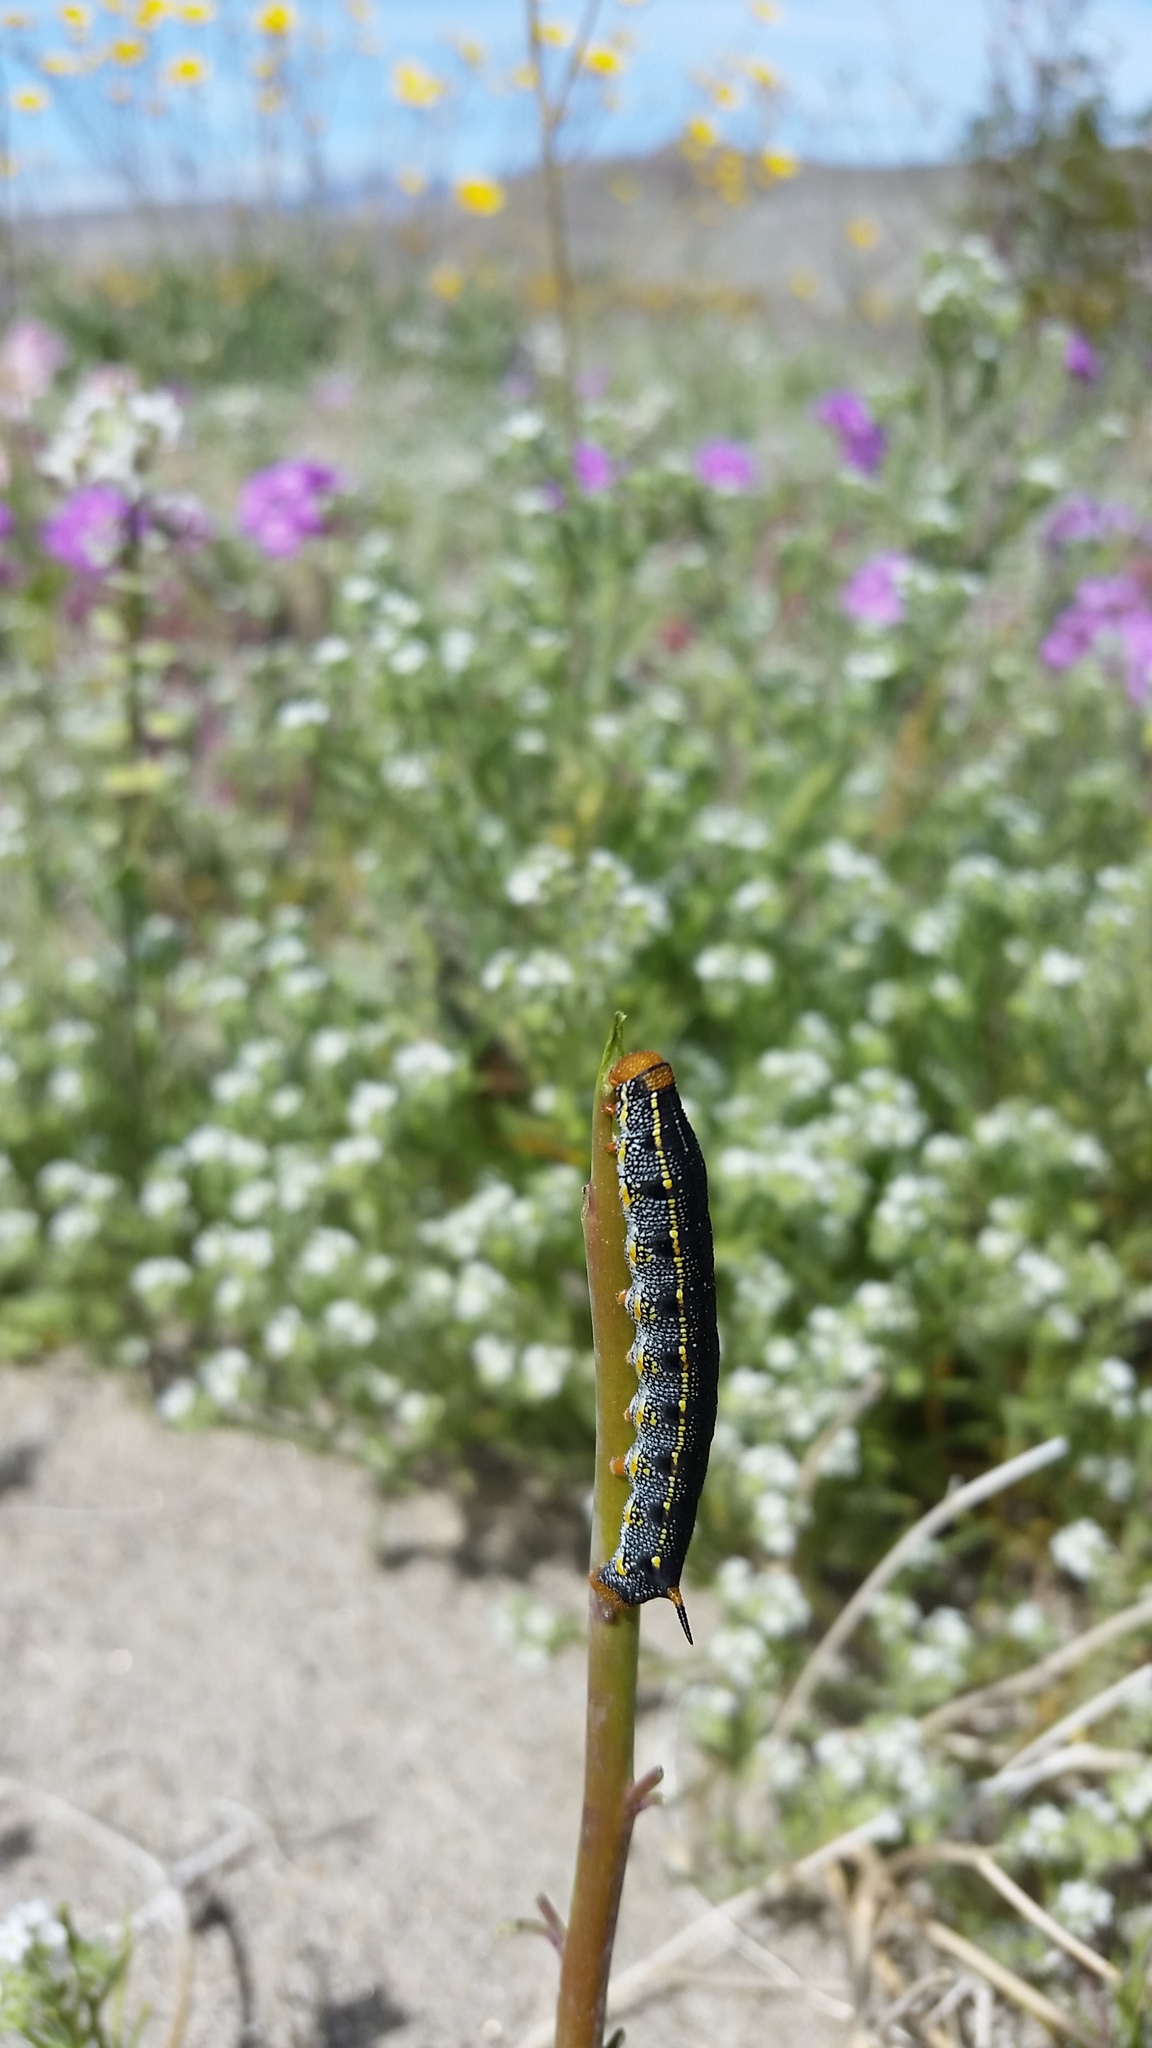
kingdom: Animalia
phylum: Arthropoda
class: Insecta
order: Lepidoptera
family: Sphingidae
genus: Hyles
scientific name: Hyles lineata
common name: White-lined sphinx
